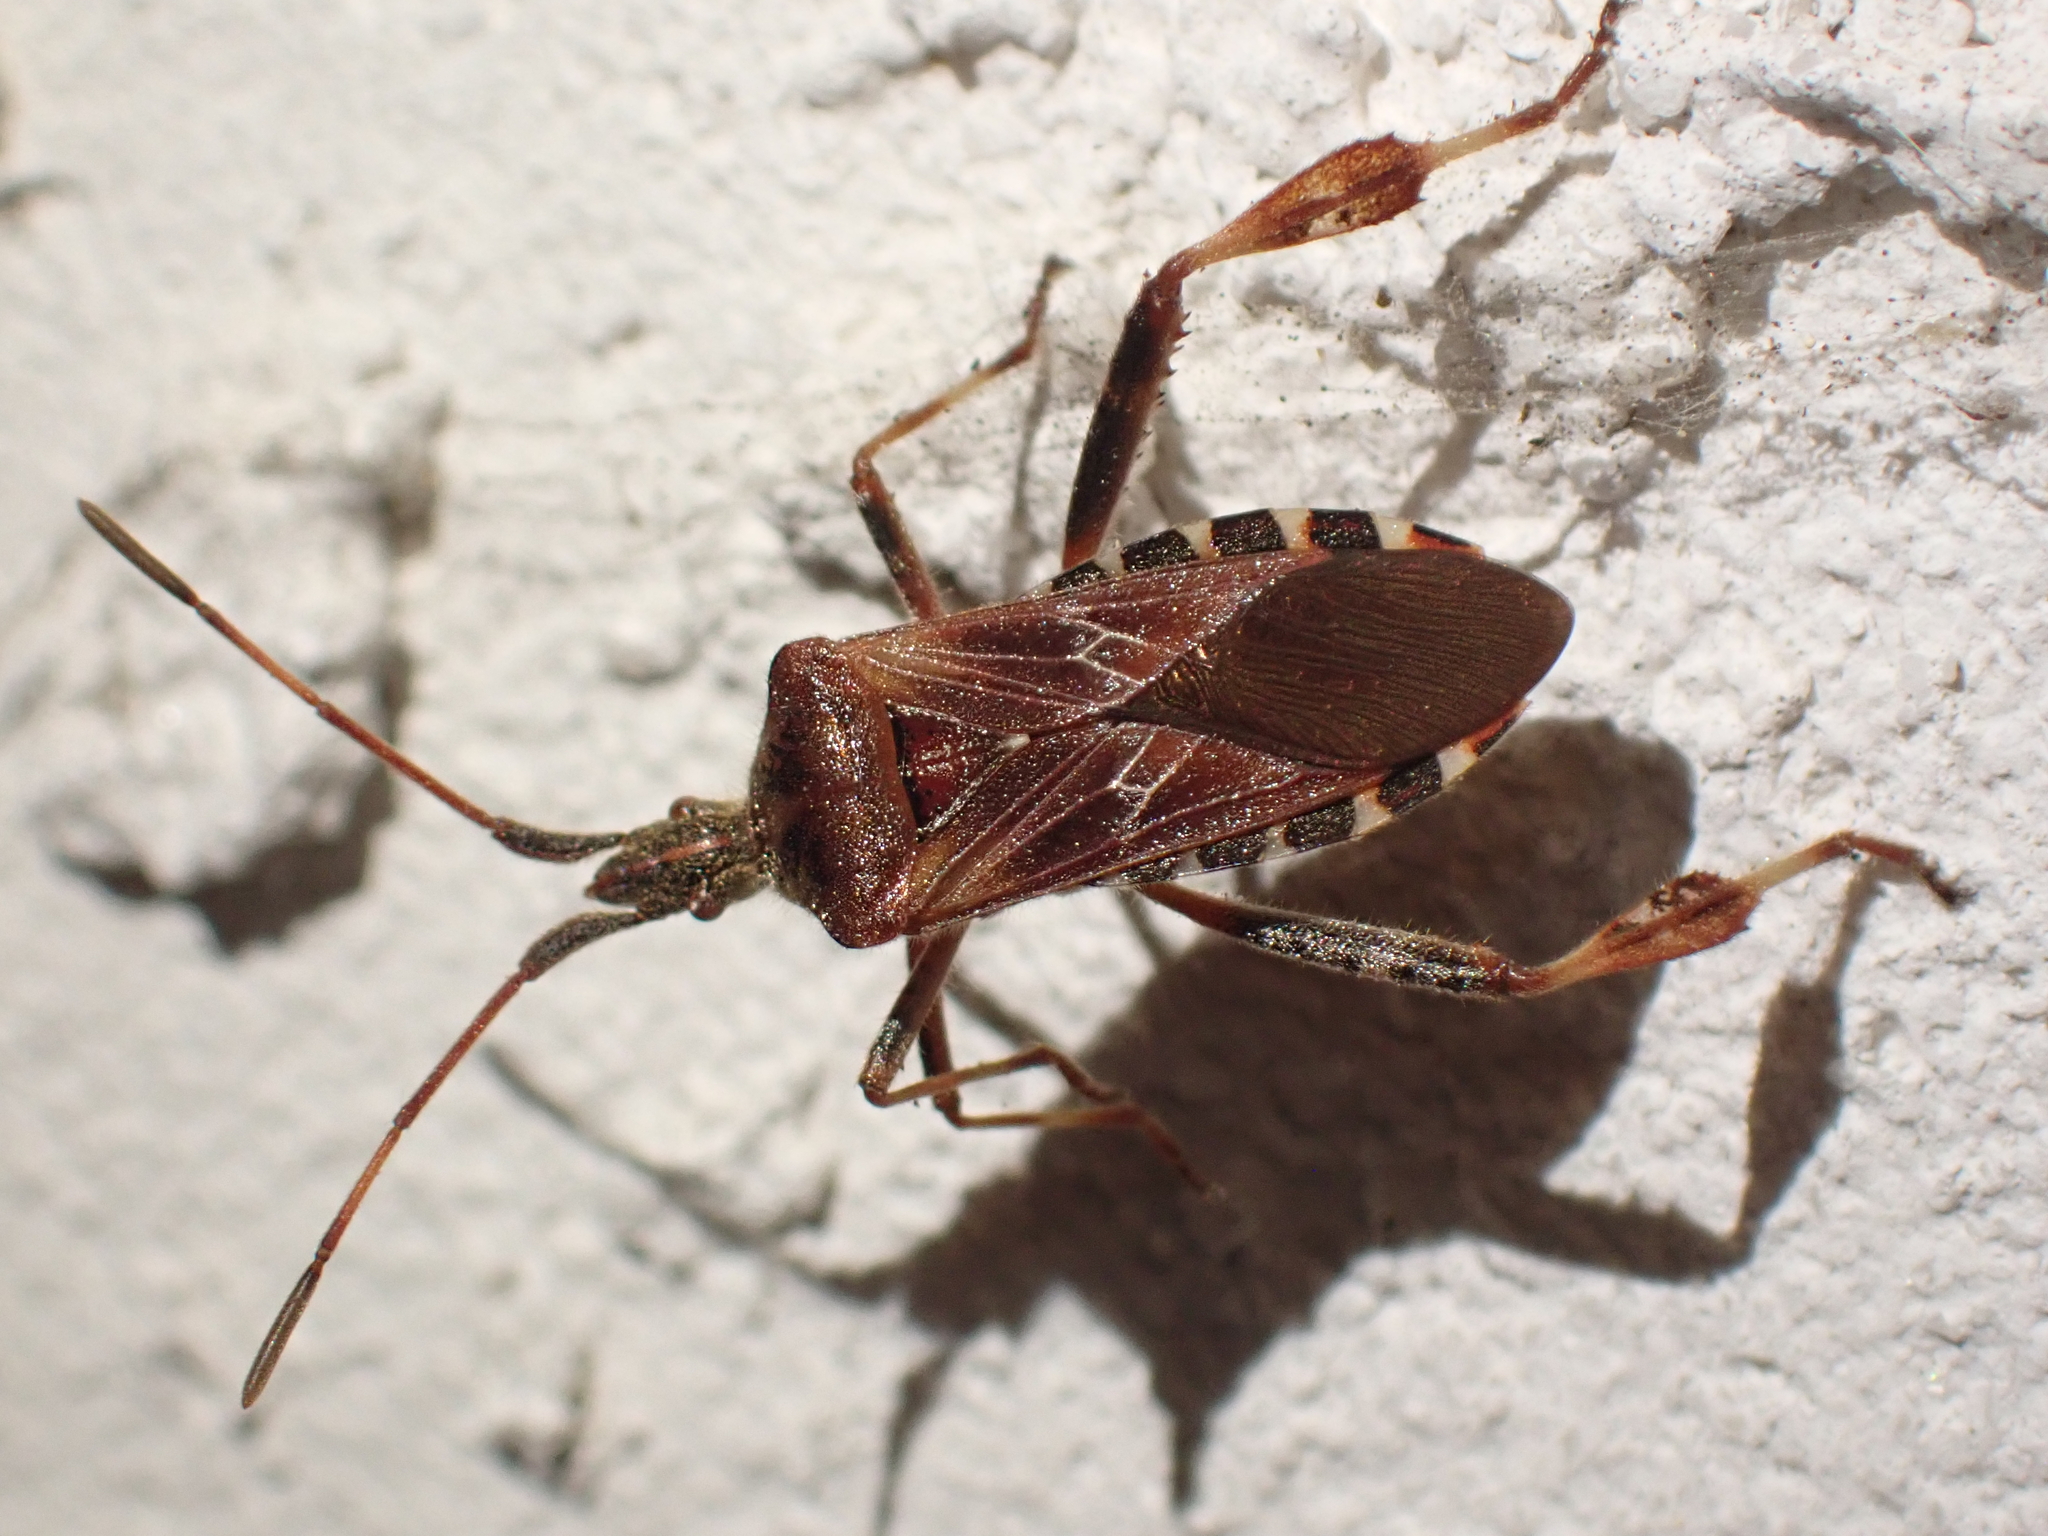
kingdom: Animalia
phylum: Arthropoda
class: Insecta
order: Hemiptera
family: Coreidae
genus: Leptoglossus
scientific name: Leptoglossus occidentalis
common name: Western conifer-seed bug
